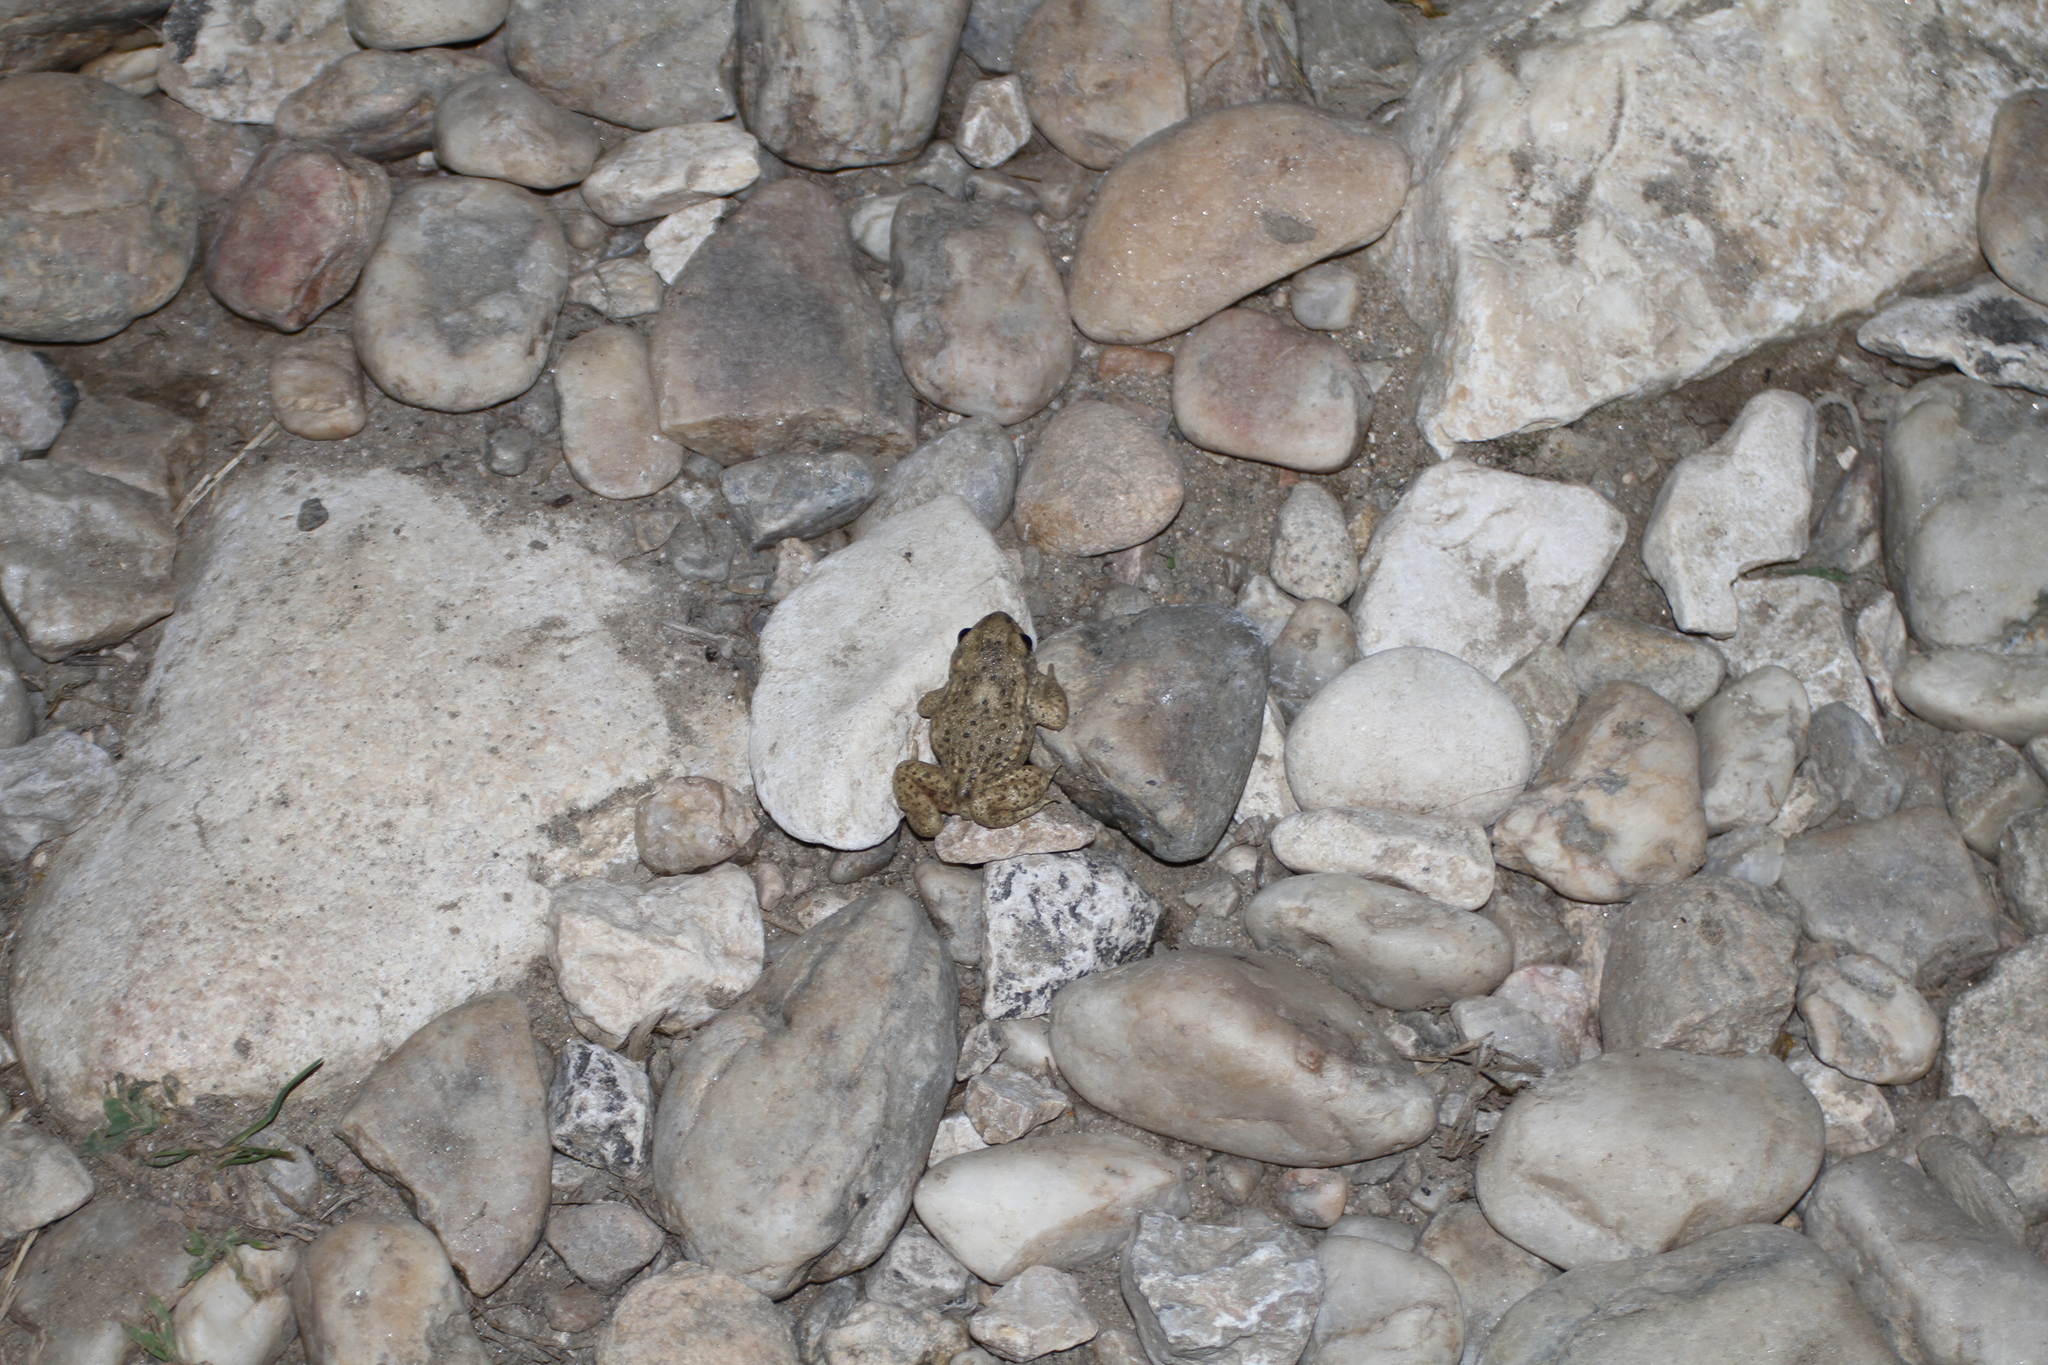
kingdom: Animalia
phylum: Chordata
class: Amphibia
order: Anura
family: Alytidae
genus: Alytes
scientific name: Alytes obstetricans
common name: Midwife toad
